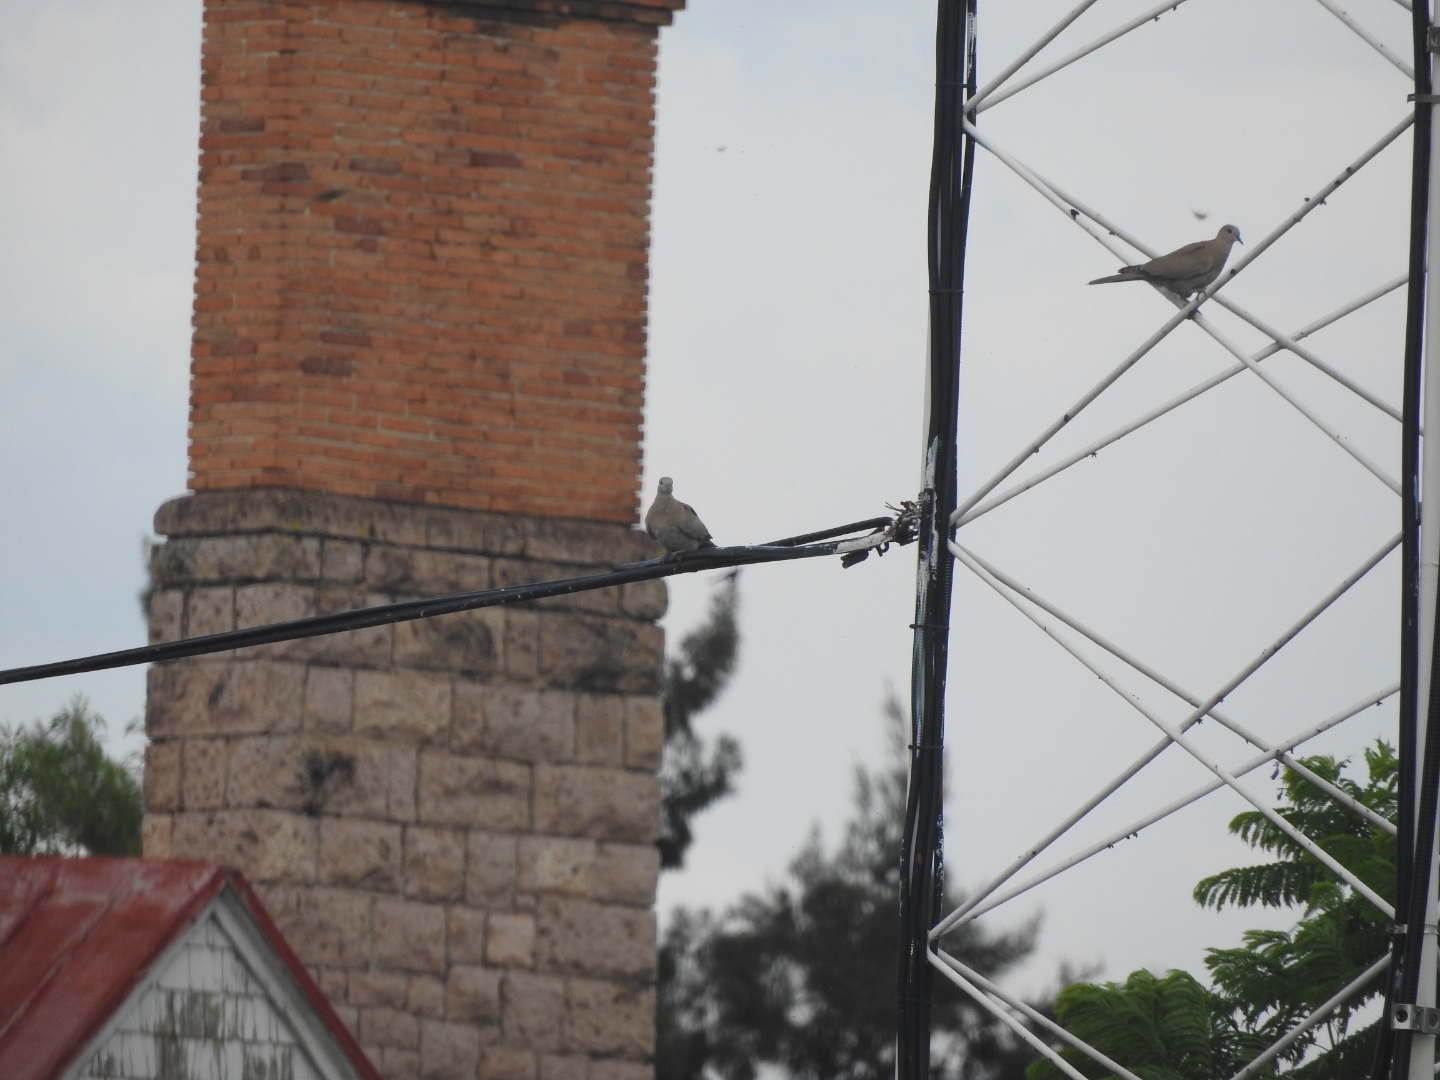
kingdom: Animalia
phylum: Chordata
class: Aves
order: Columbiformes
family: Columbidae
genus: Streptopelia
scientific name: Streptopelia decaocto
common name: Eurasian collared dove
